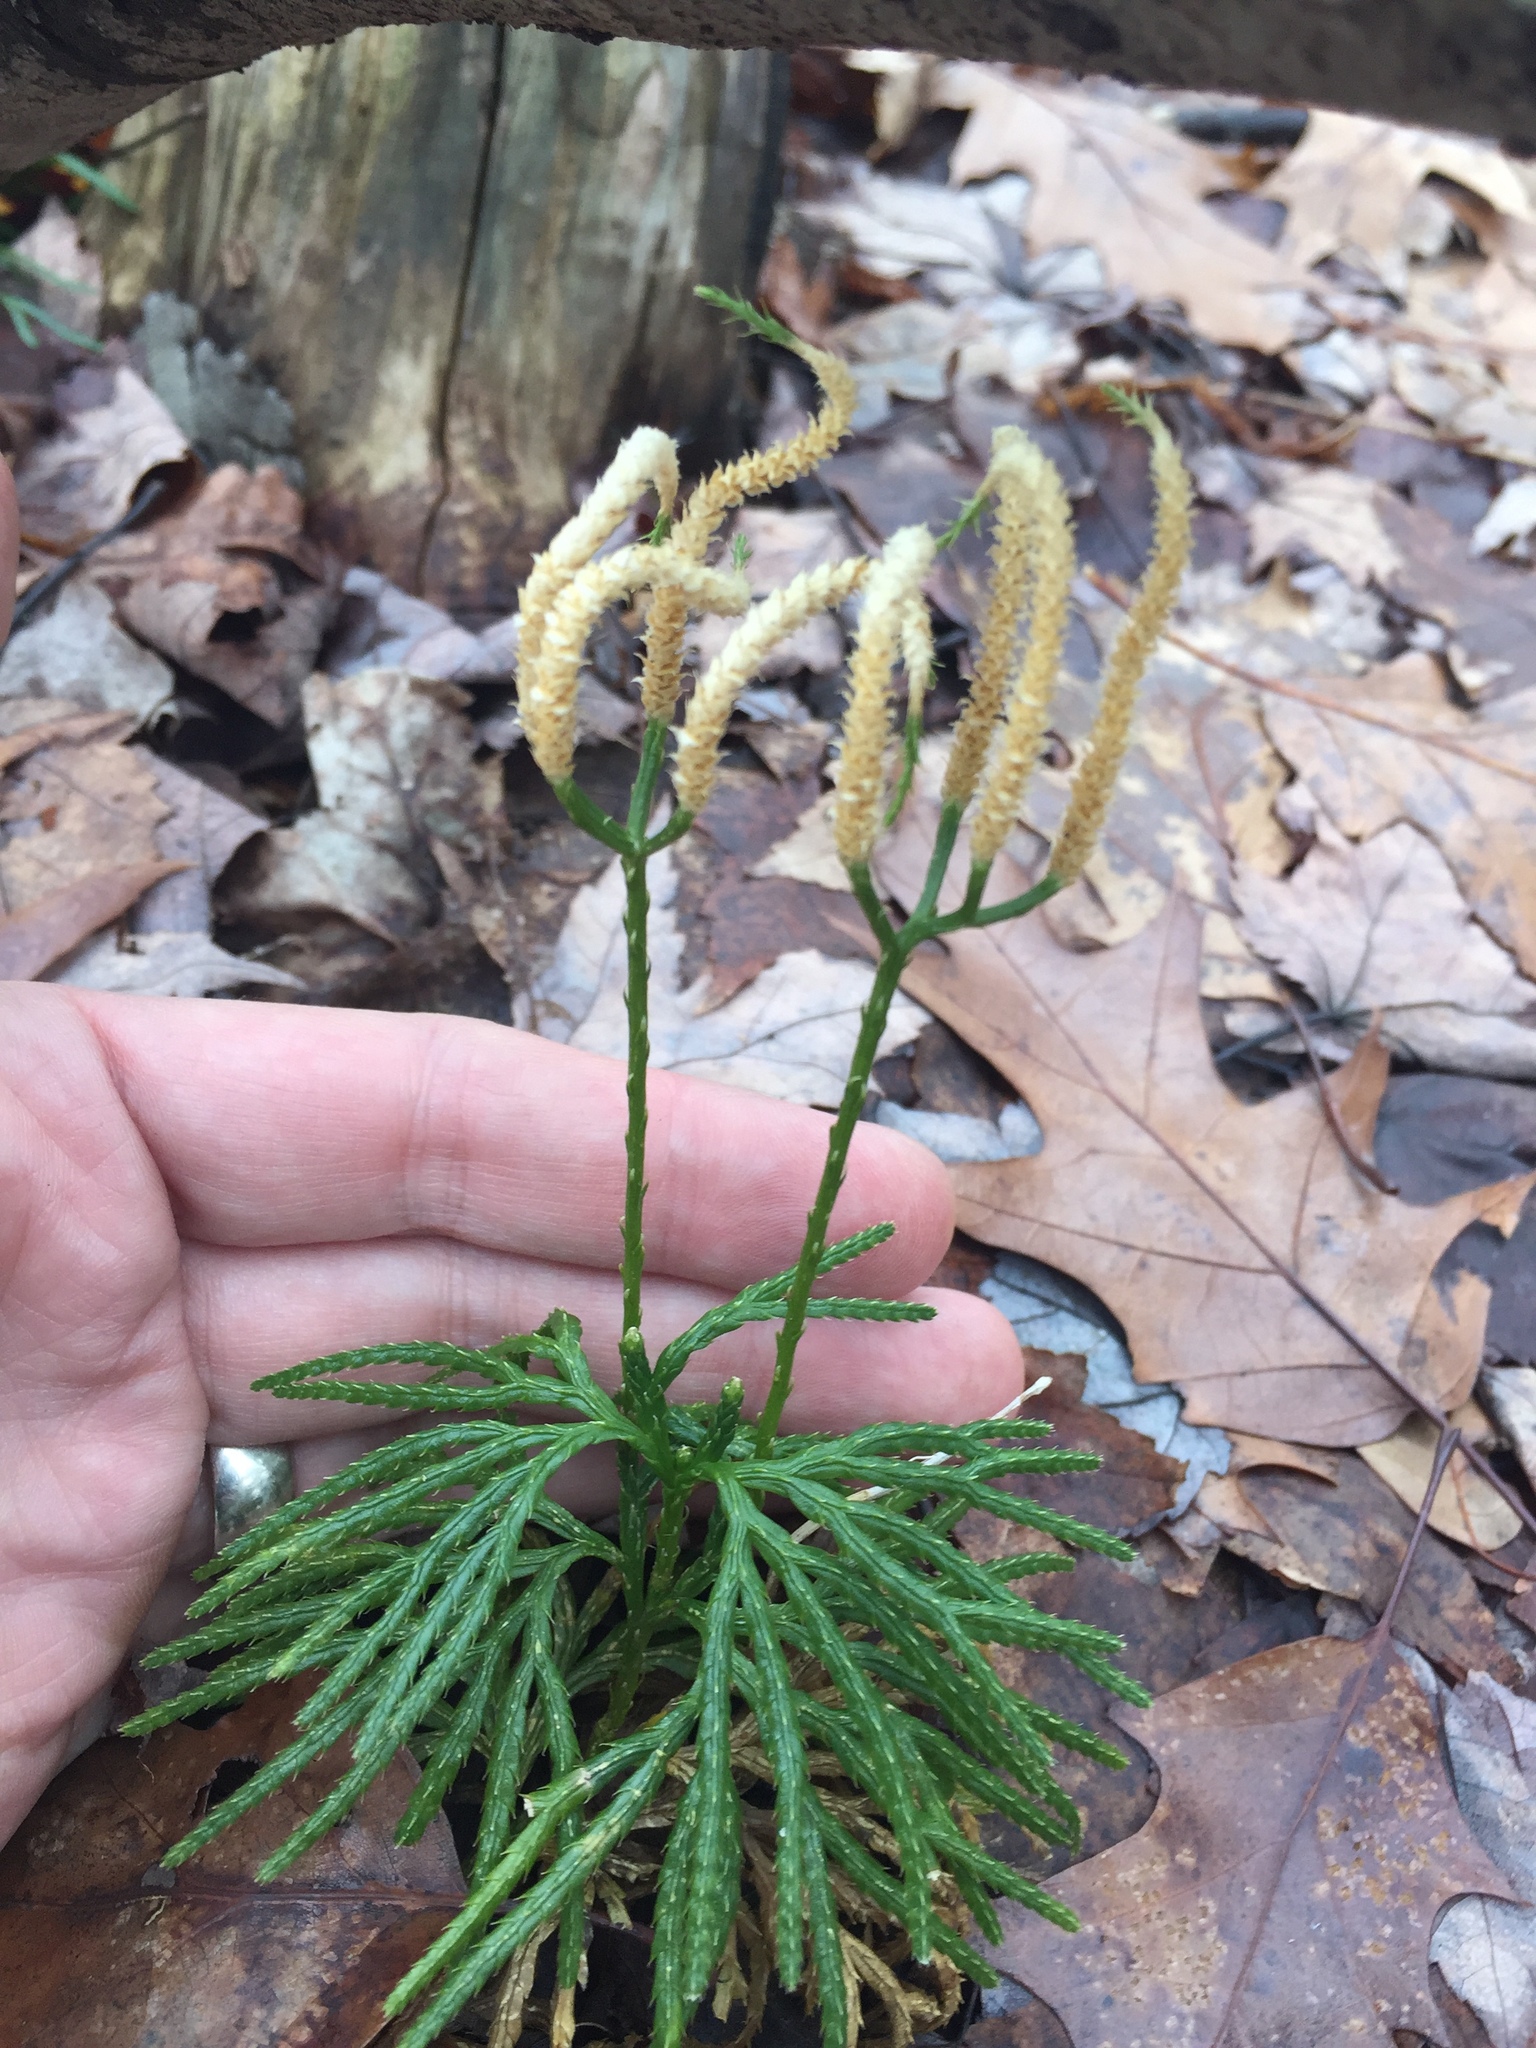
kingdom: Plantae
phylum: Tracheophyta
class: Lycopodiopsida
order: Lycopodiales
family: Lycopodiaceae
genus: Diphasiastrum
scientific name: Diphasiastrum digitatum
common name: Southern running-pine
